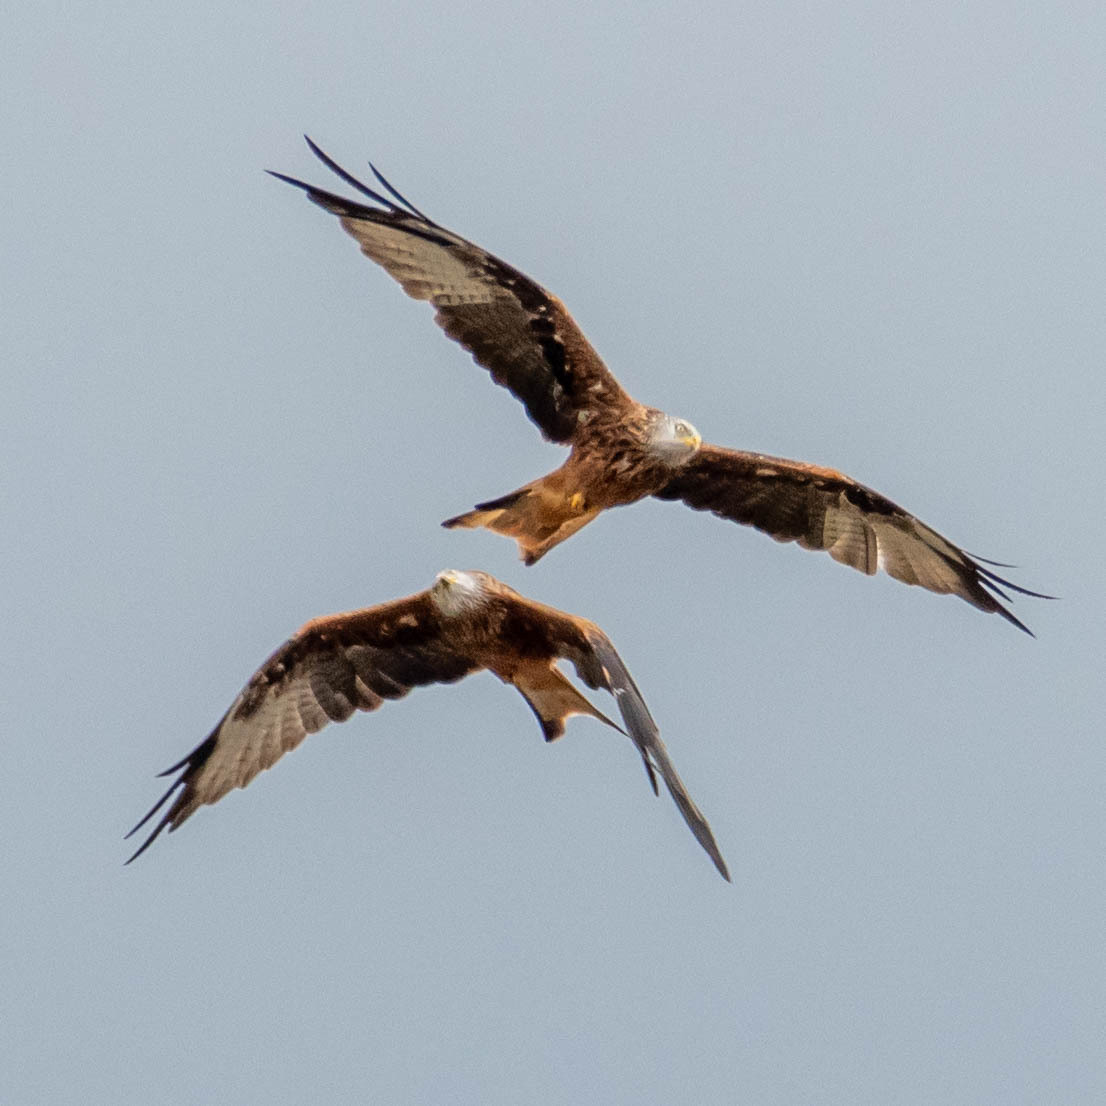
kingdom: Animalia
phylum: Chordata
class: Aves
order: Accipitriformes
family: Accipitridae
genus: Milvus
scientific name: Milvus milvus
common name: Red kite
